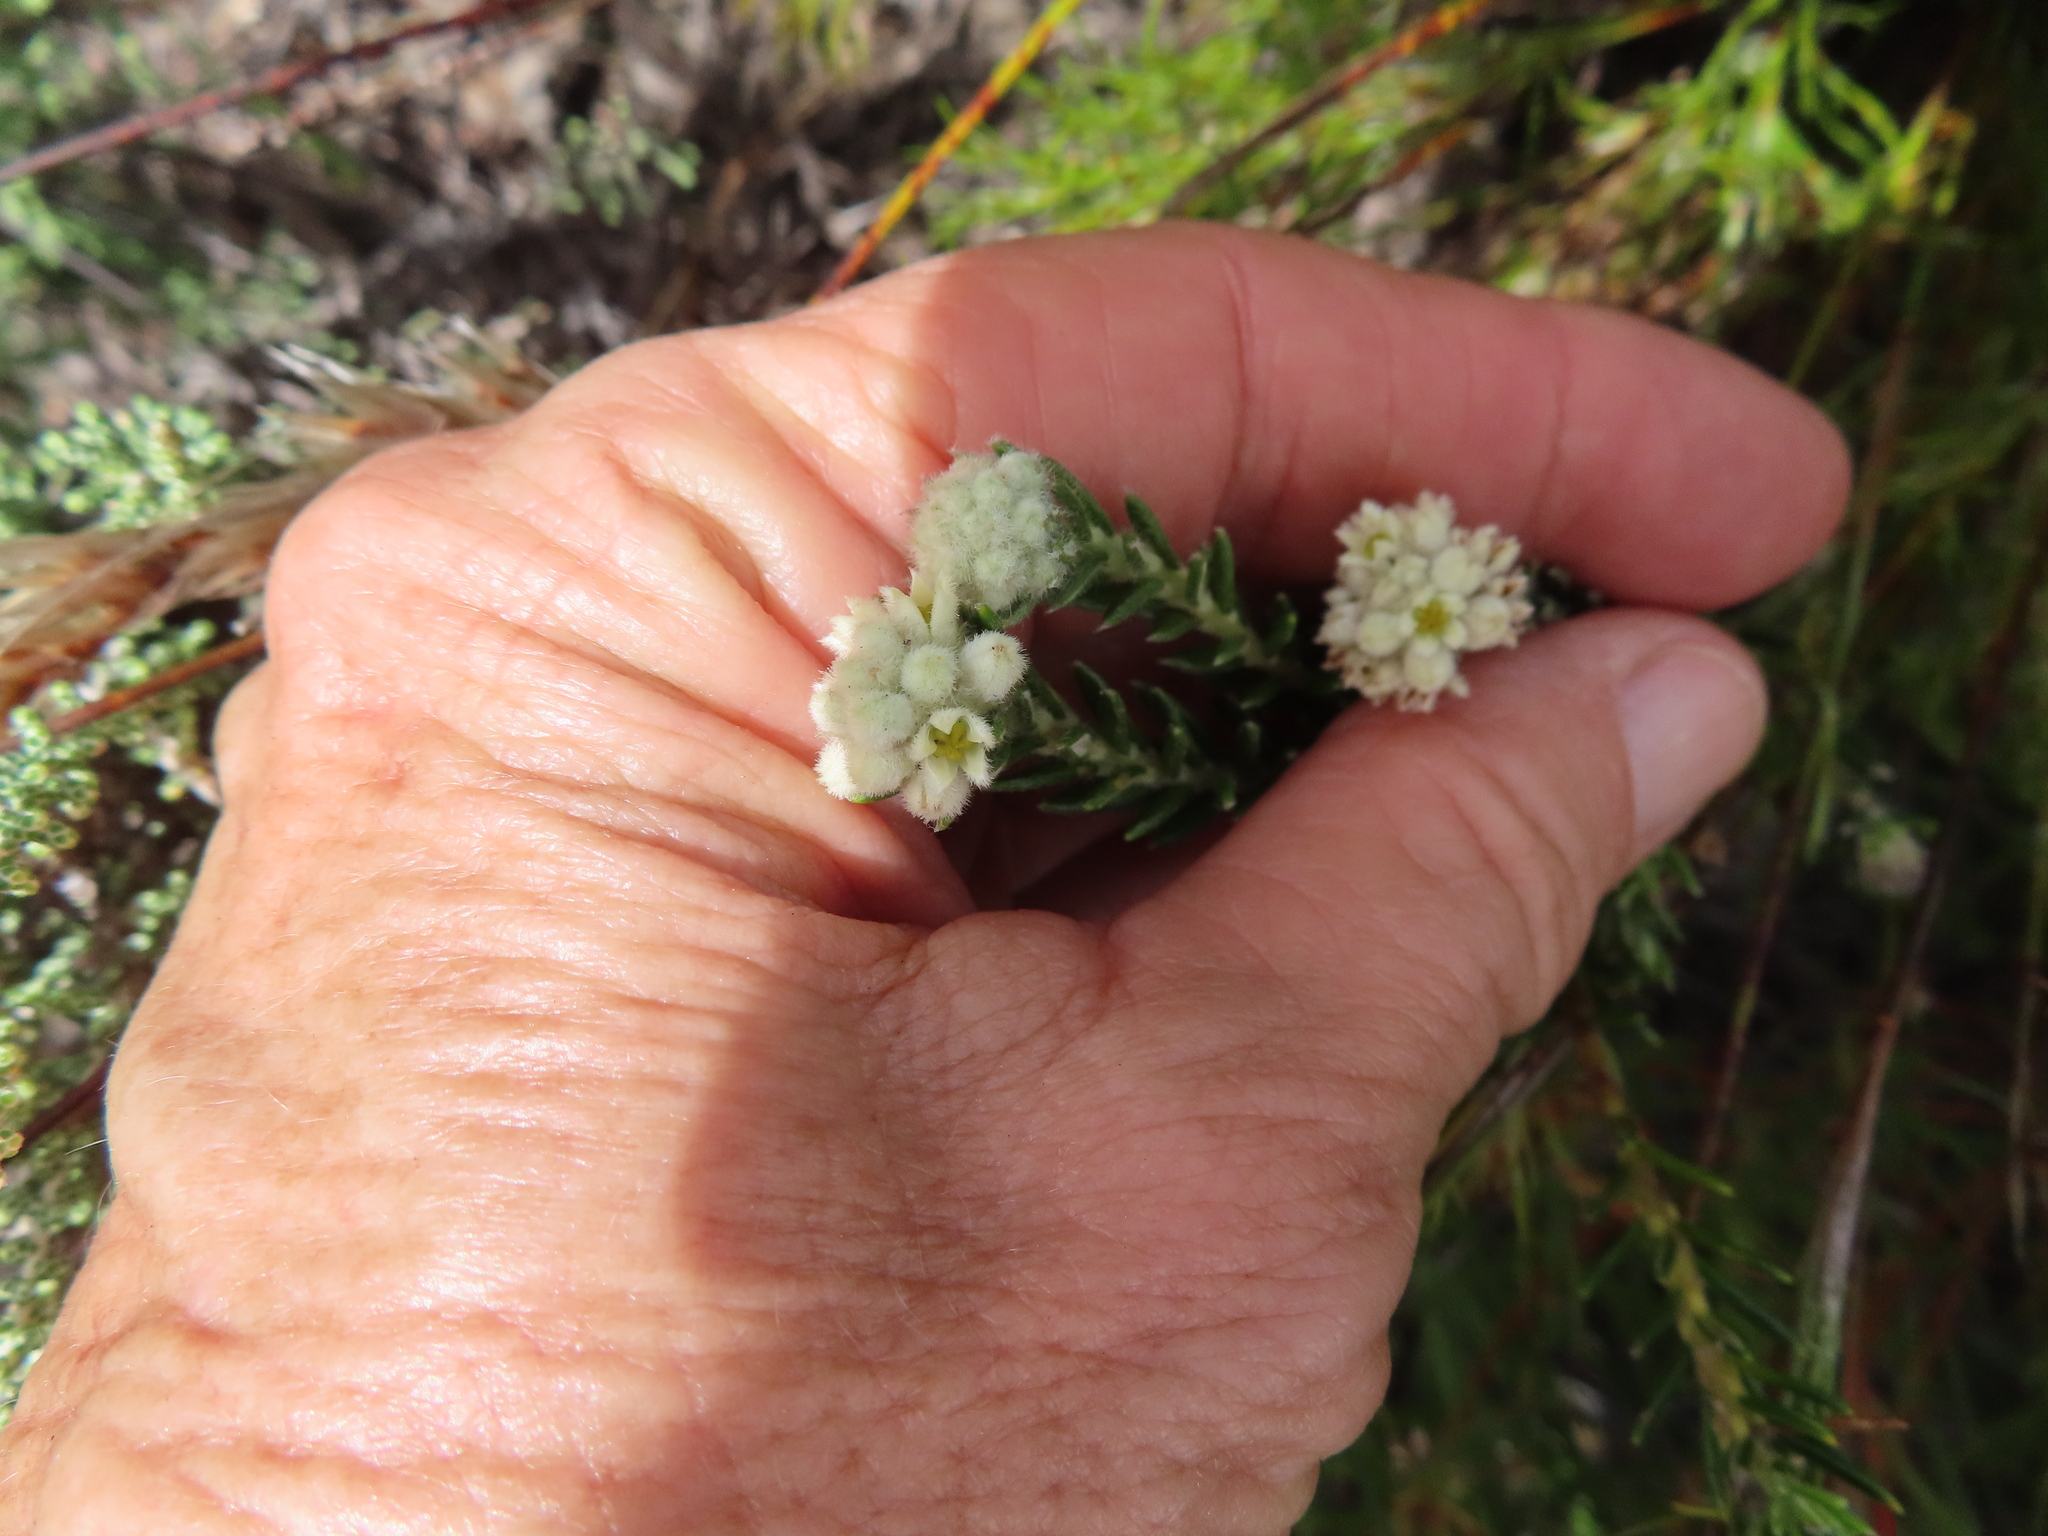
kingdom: Plantae
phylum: Tracheophyta
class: Magnoliopsida
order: Rosales
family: Rhamnaceae
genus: Phylica
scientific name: Phylica imberbis
